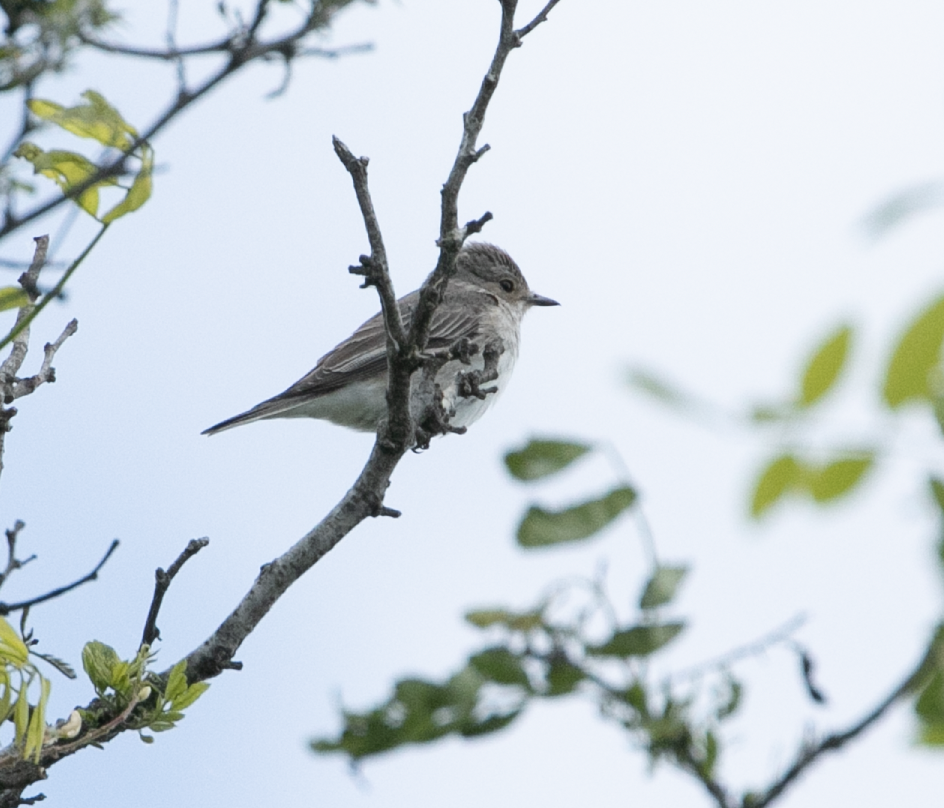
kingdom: Animalia
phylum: Chordata
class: Aves
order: Passeriformes
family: Muscicapidae
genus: Muscicapa
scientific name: Muscicapa striata
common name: Spotted flycatcher
